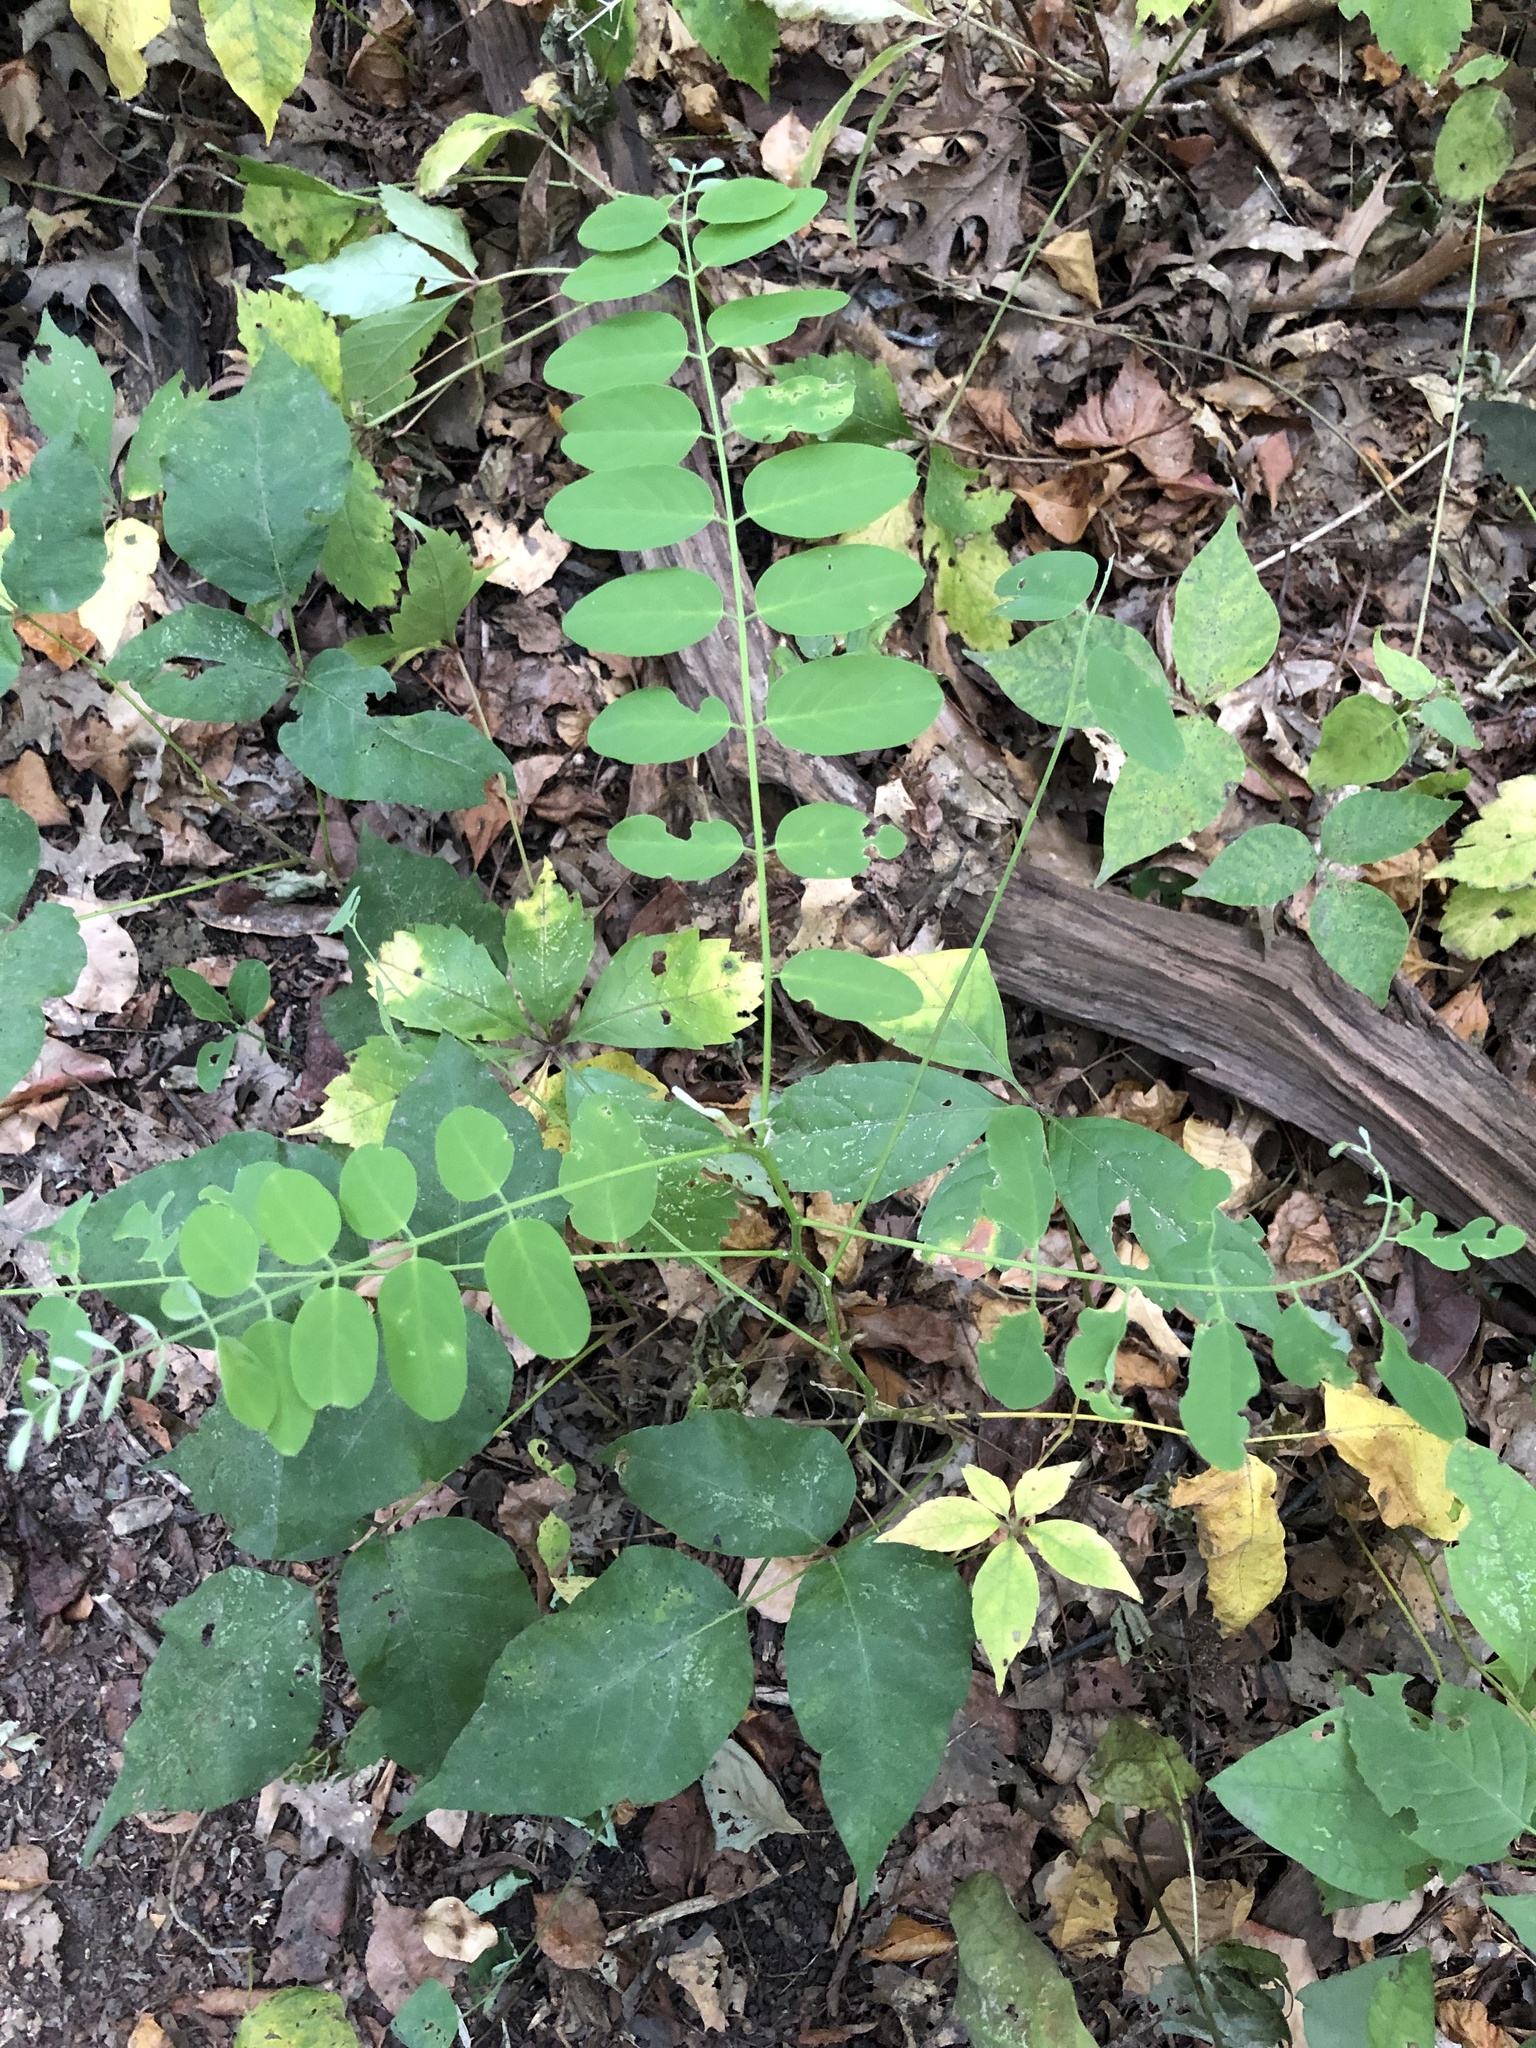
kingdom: Plantae
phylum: Tracheophyta
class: Magnoliopsida
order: Fabales
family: Fabaceae
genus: Robinia
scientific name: Robinia pseudoacacia
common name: Black locust
